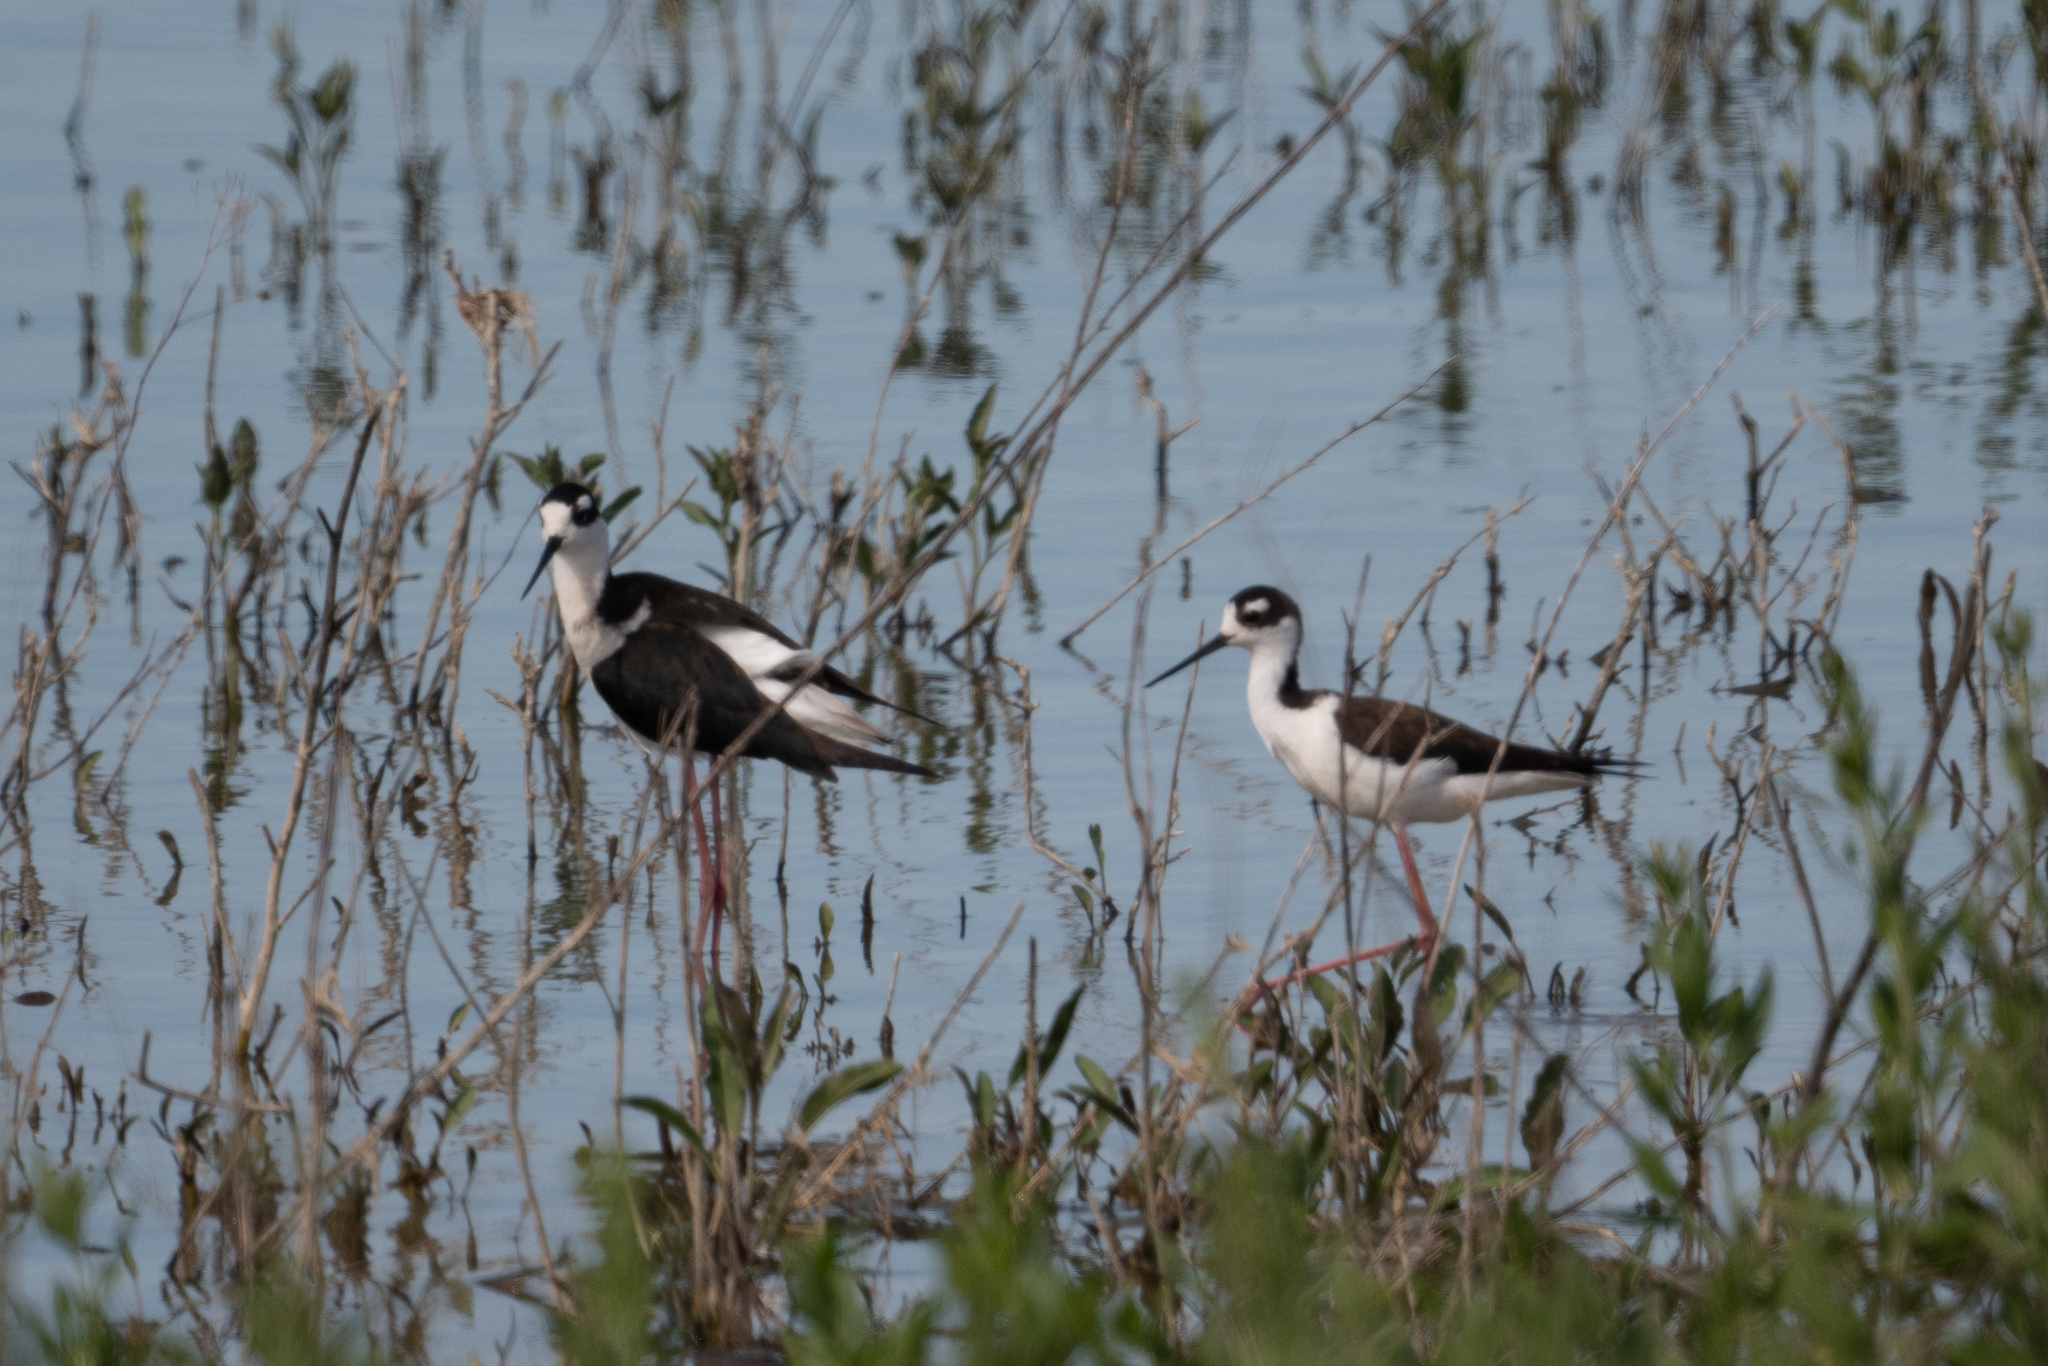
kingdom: Animalia
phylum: Chordata
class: Aves
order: Charadriiformes
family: Recurvirostridae
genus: Himantopus
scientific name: Himantopus mexicanus
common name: Black-necked stilt
